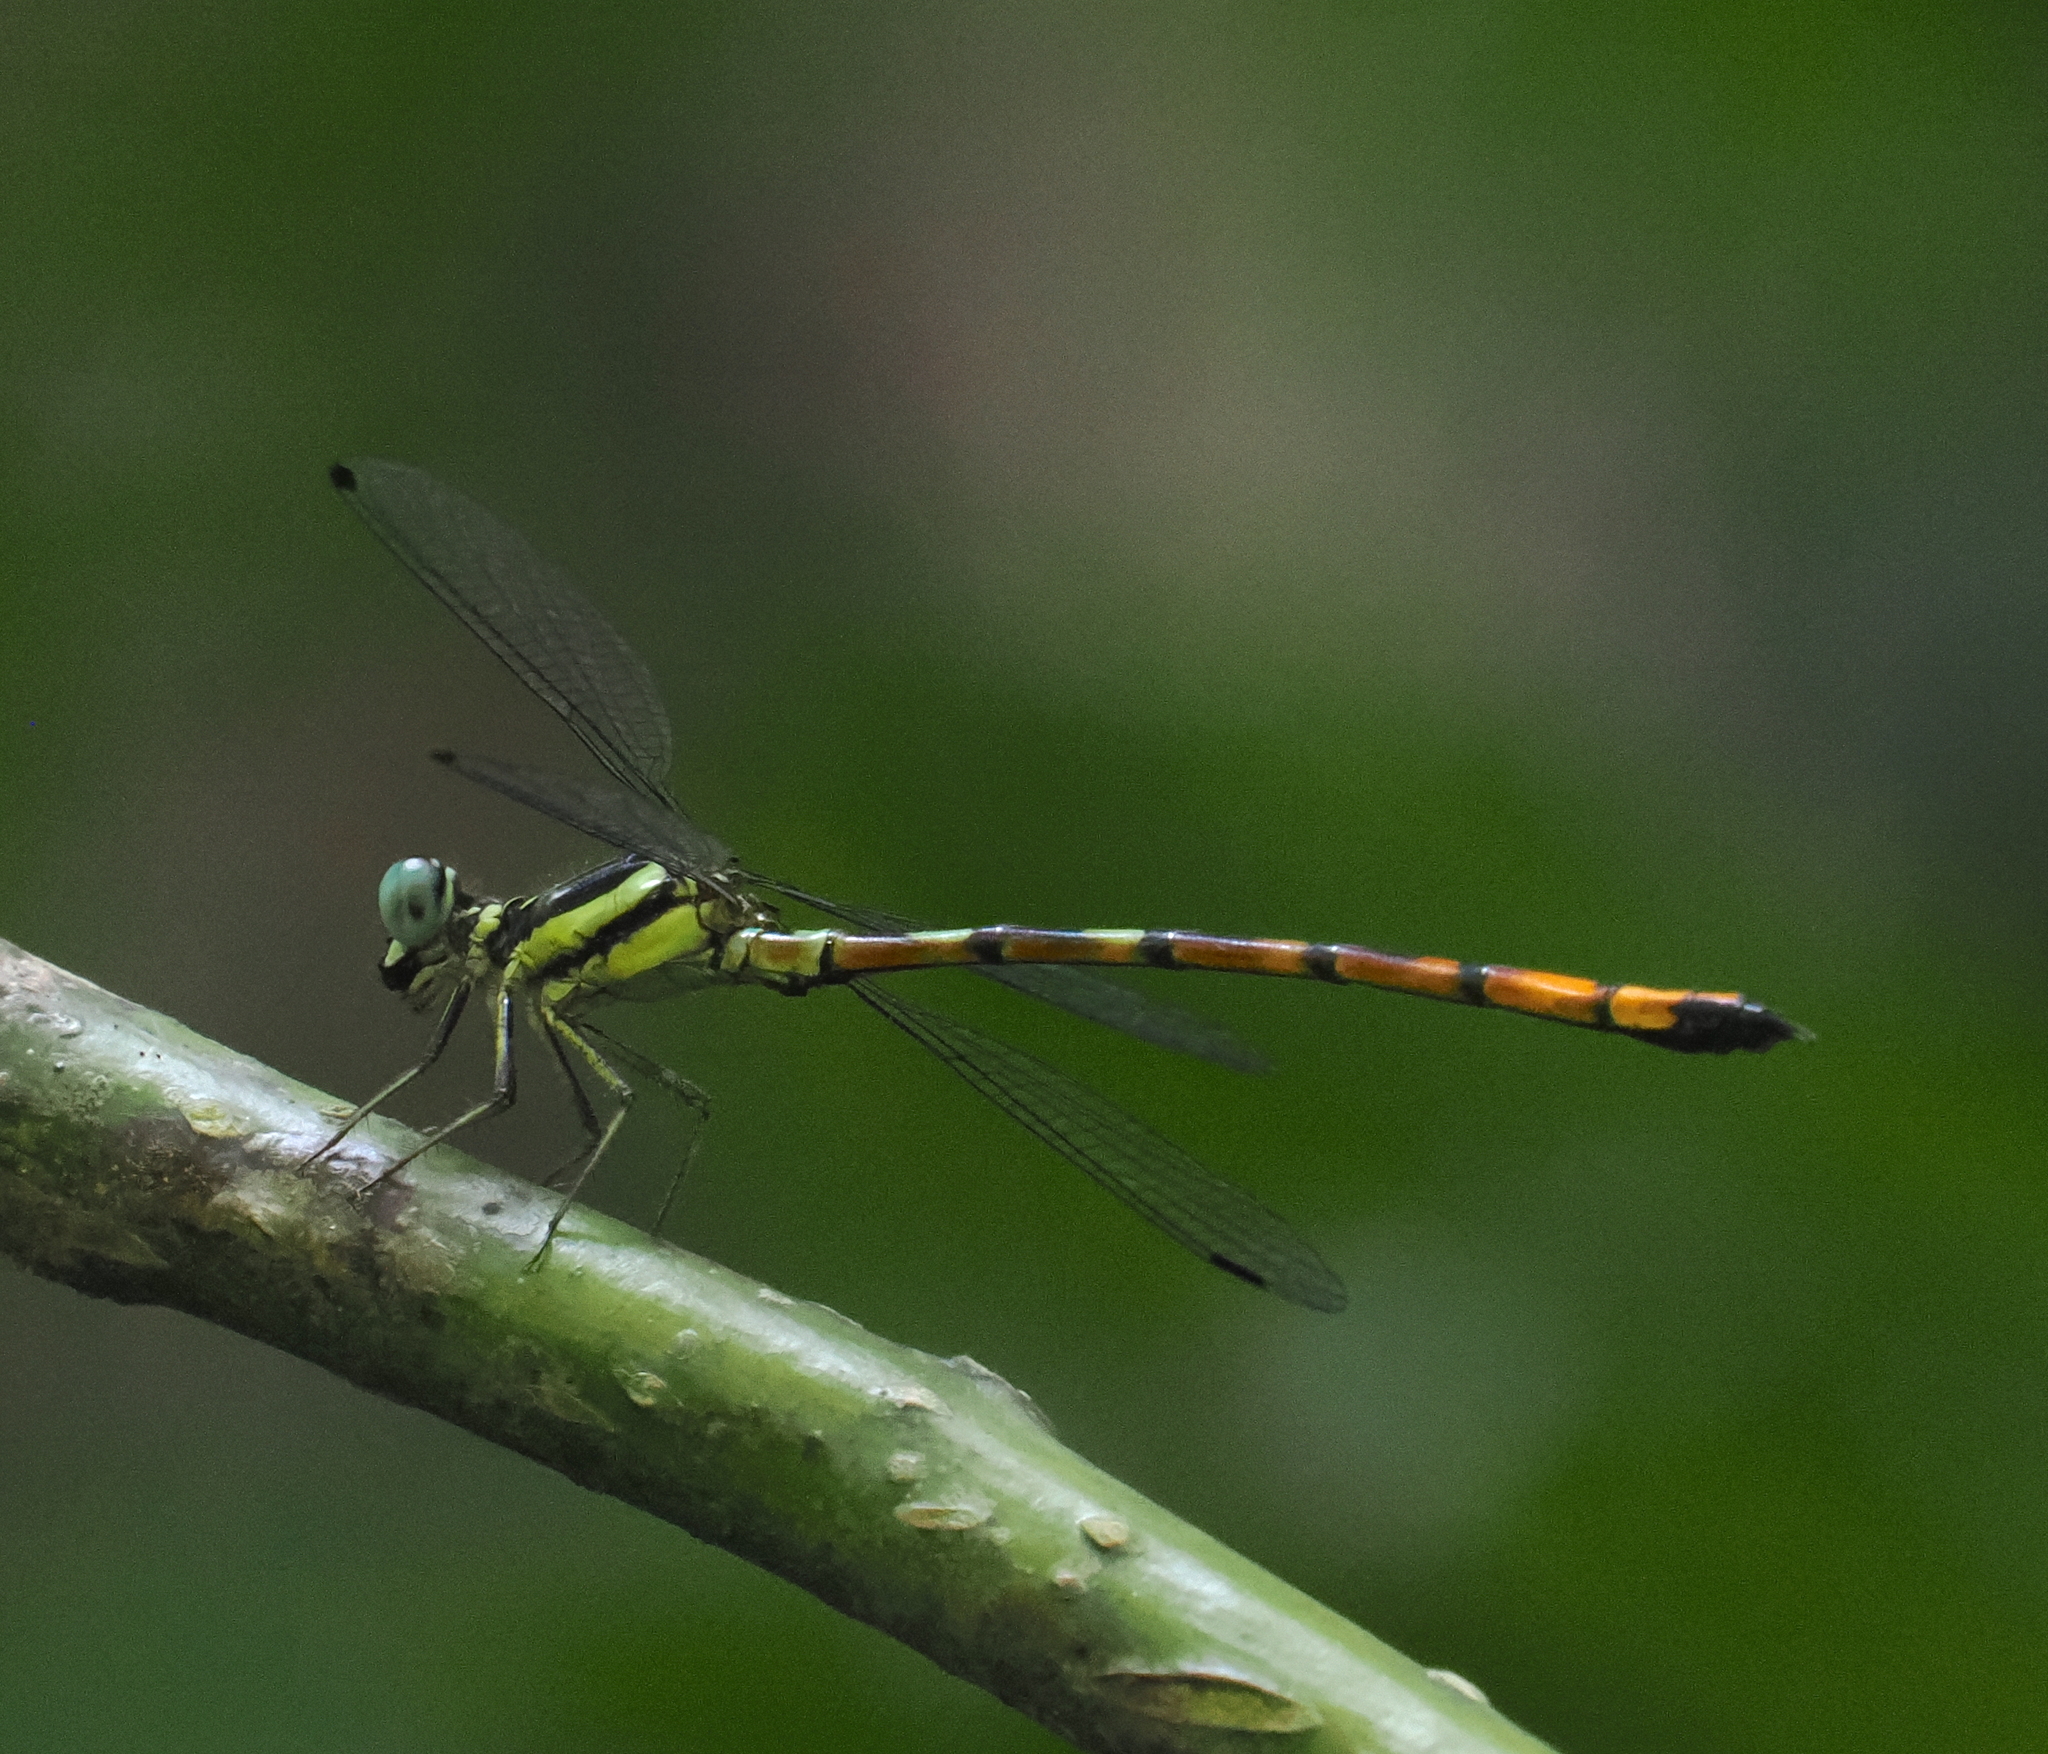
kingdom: Animalia
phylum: Arthropoda
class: Insecta
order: Odonata
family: Philosinidae
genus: Rhinagrion
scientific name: Rhinagrion viridatum
